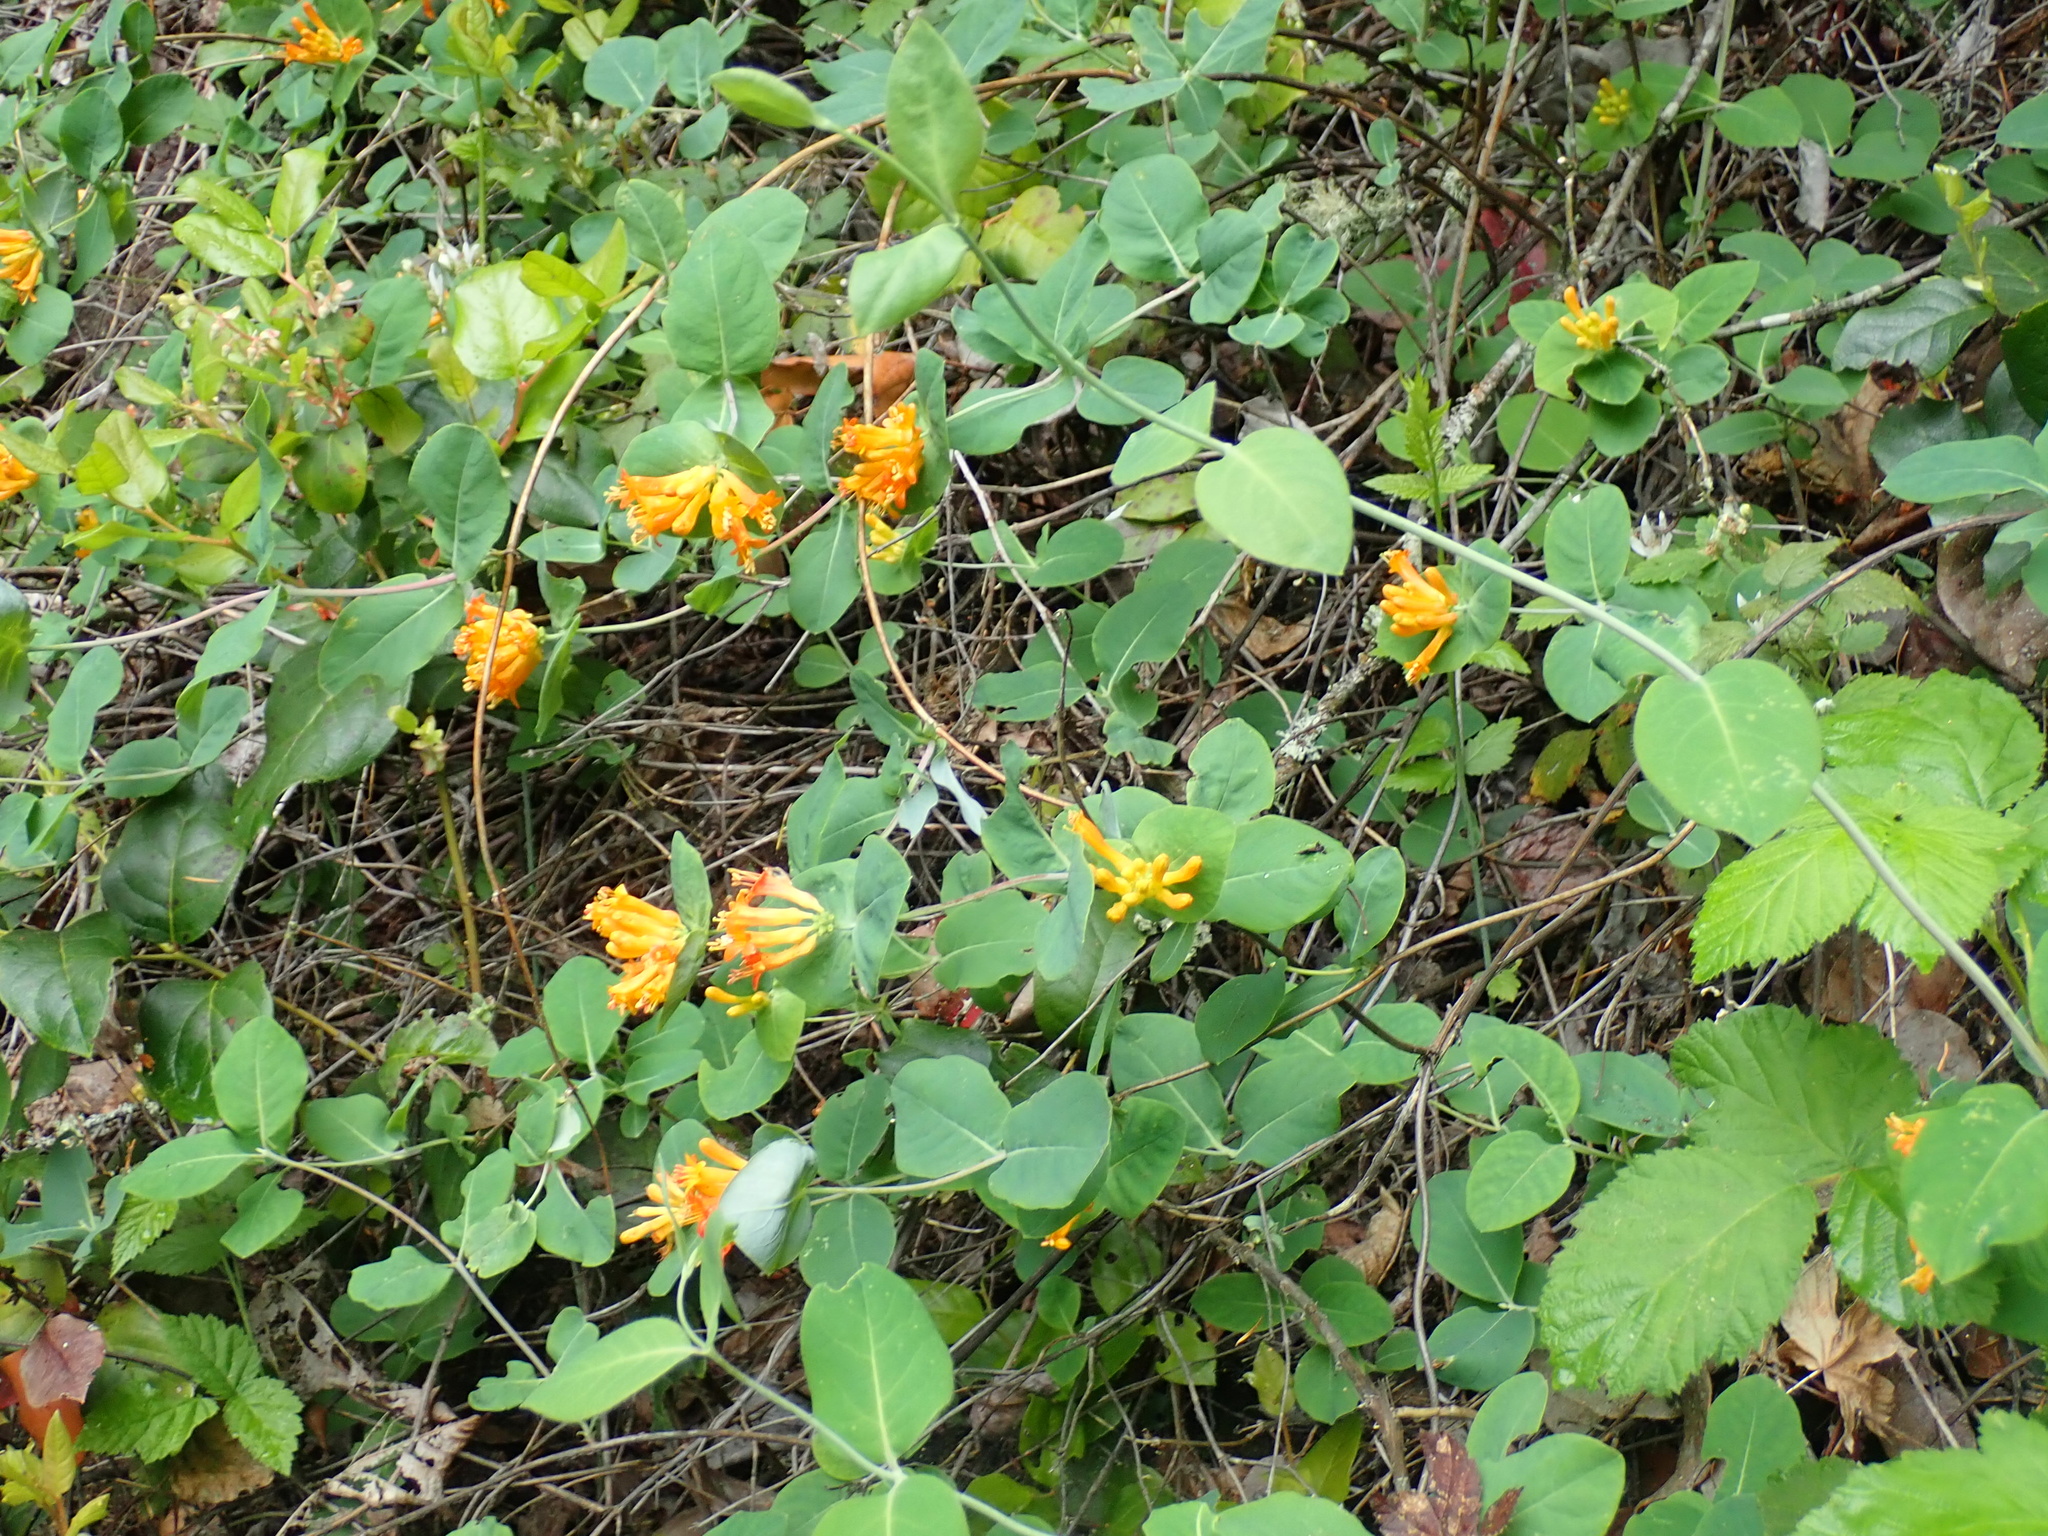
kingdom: Plantae
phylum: Tracheophyta
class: Magnoliopsida
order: Dipsacales
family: Caprifoliaceae
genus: Lonicera
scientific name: Lonicera ciliosa
